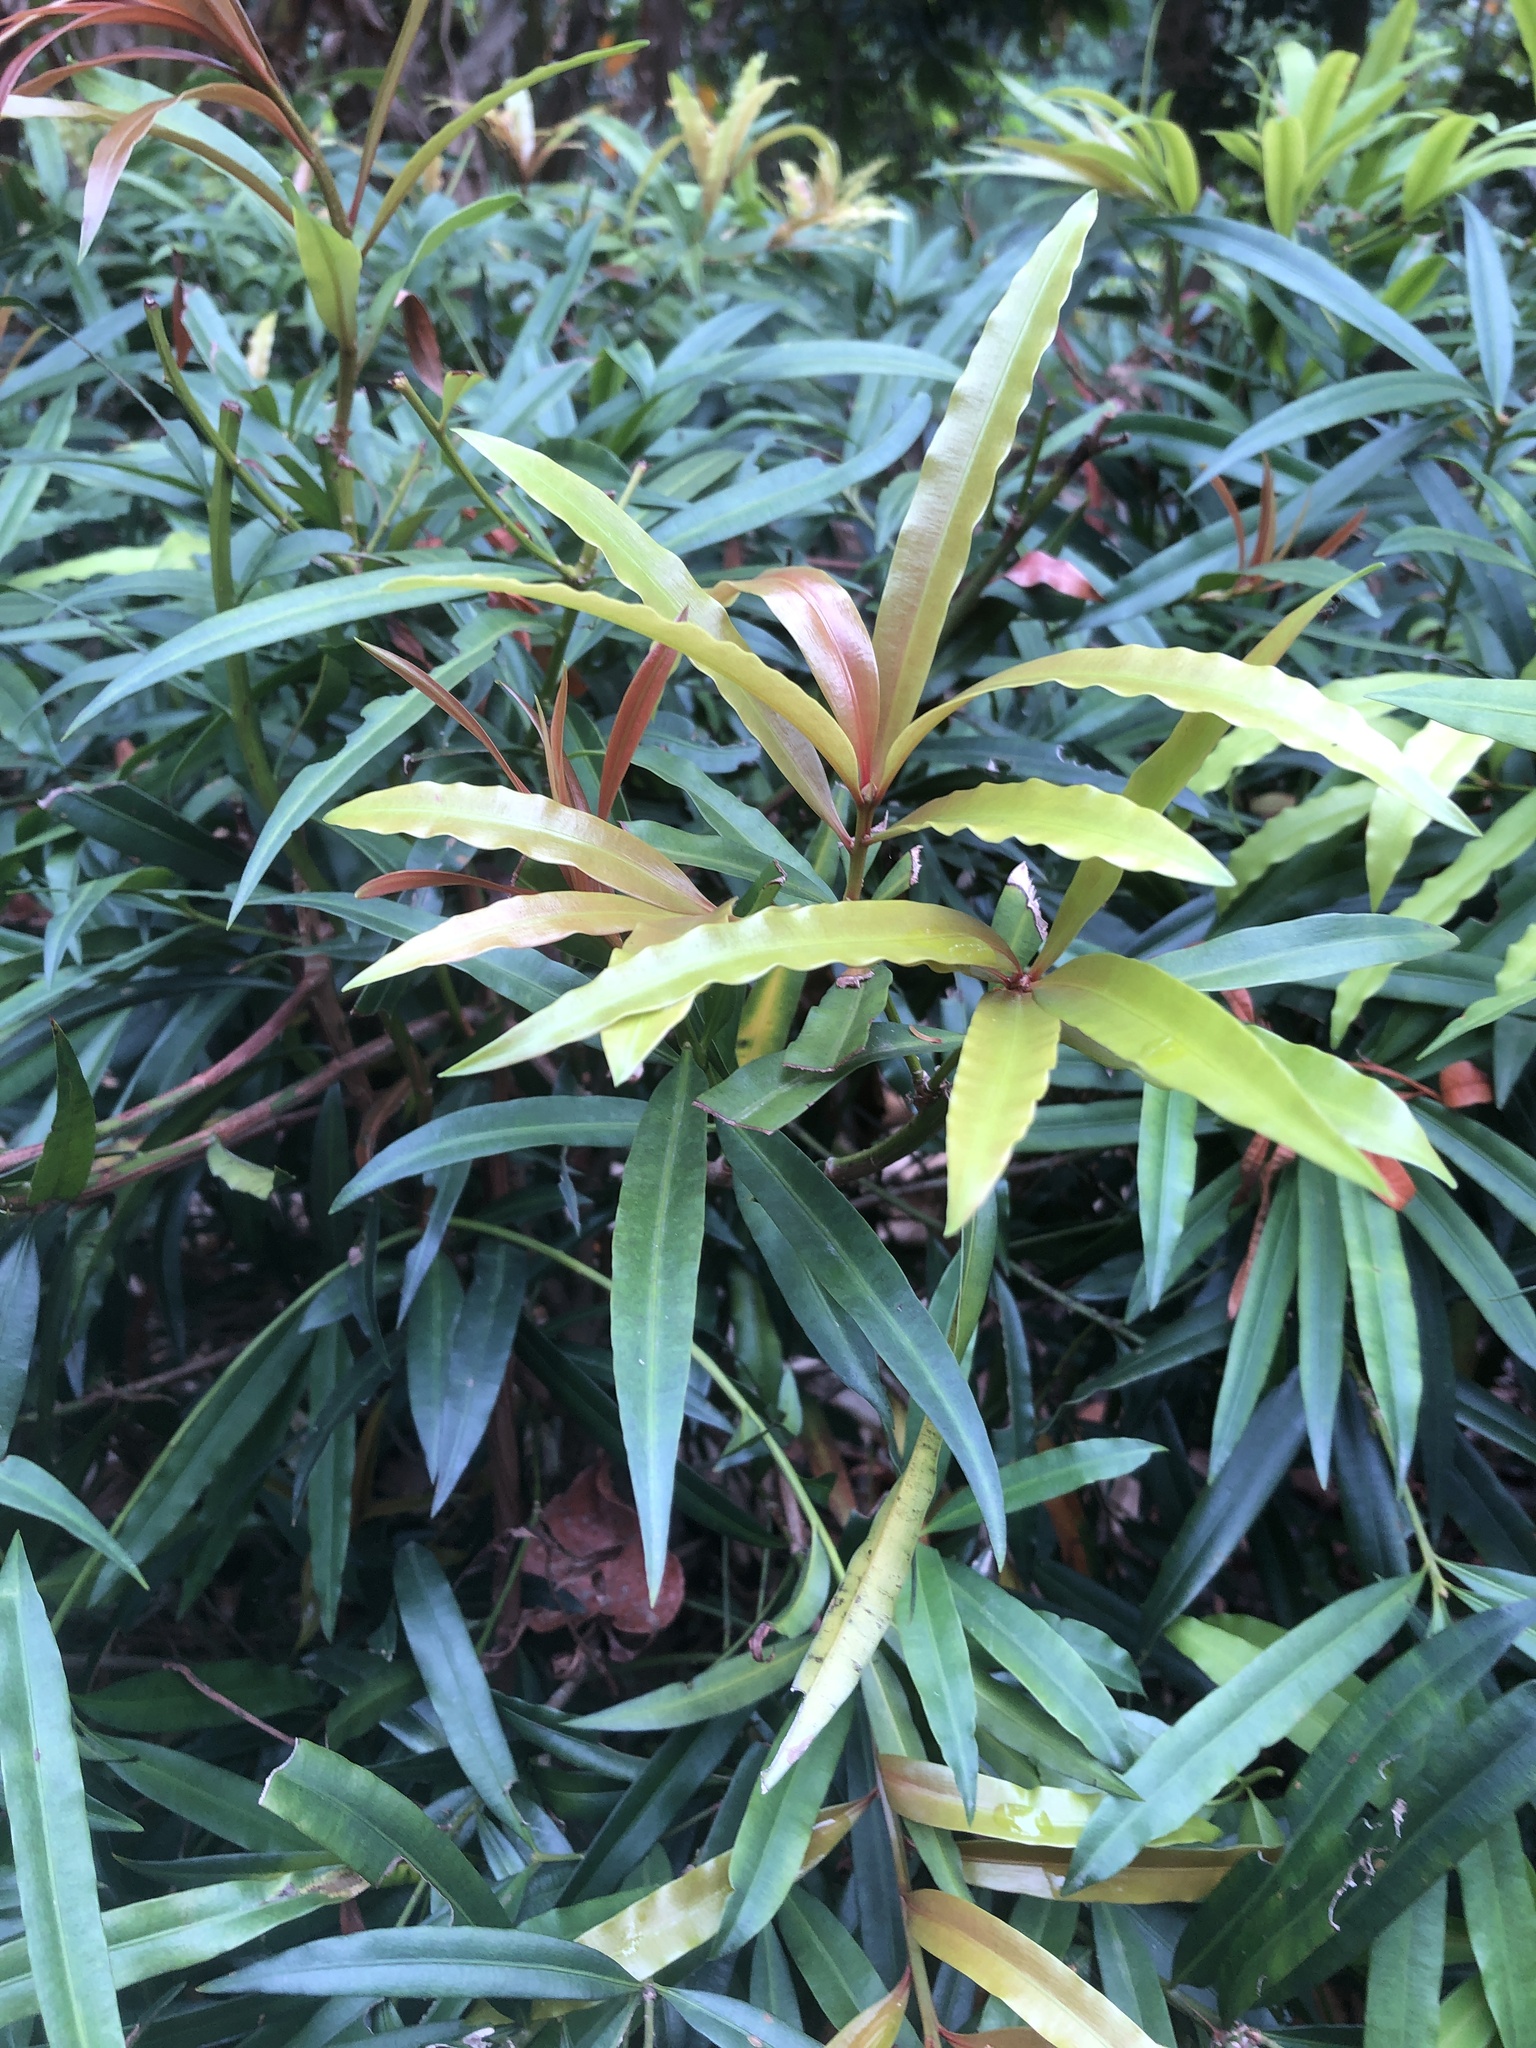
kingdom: Plantae
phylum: Tracheophyta
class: Pinopsida
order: Pinales
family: Podocarpaceae
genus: Podocarpus
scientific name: Podocarpus nakaii
